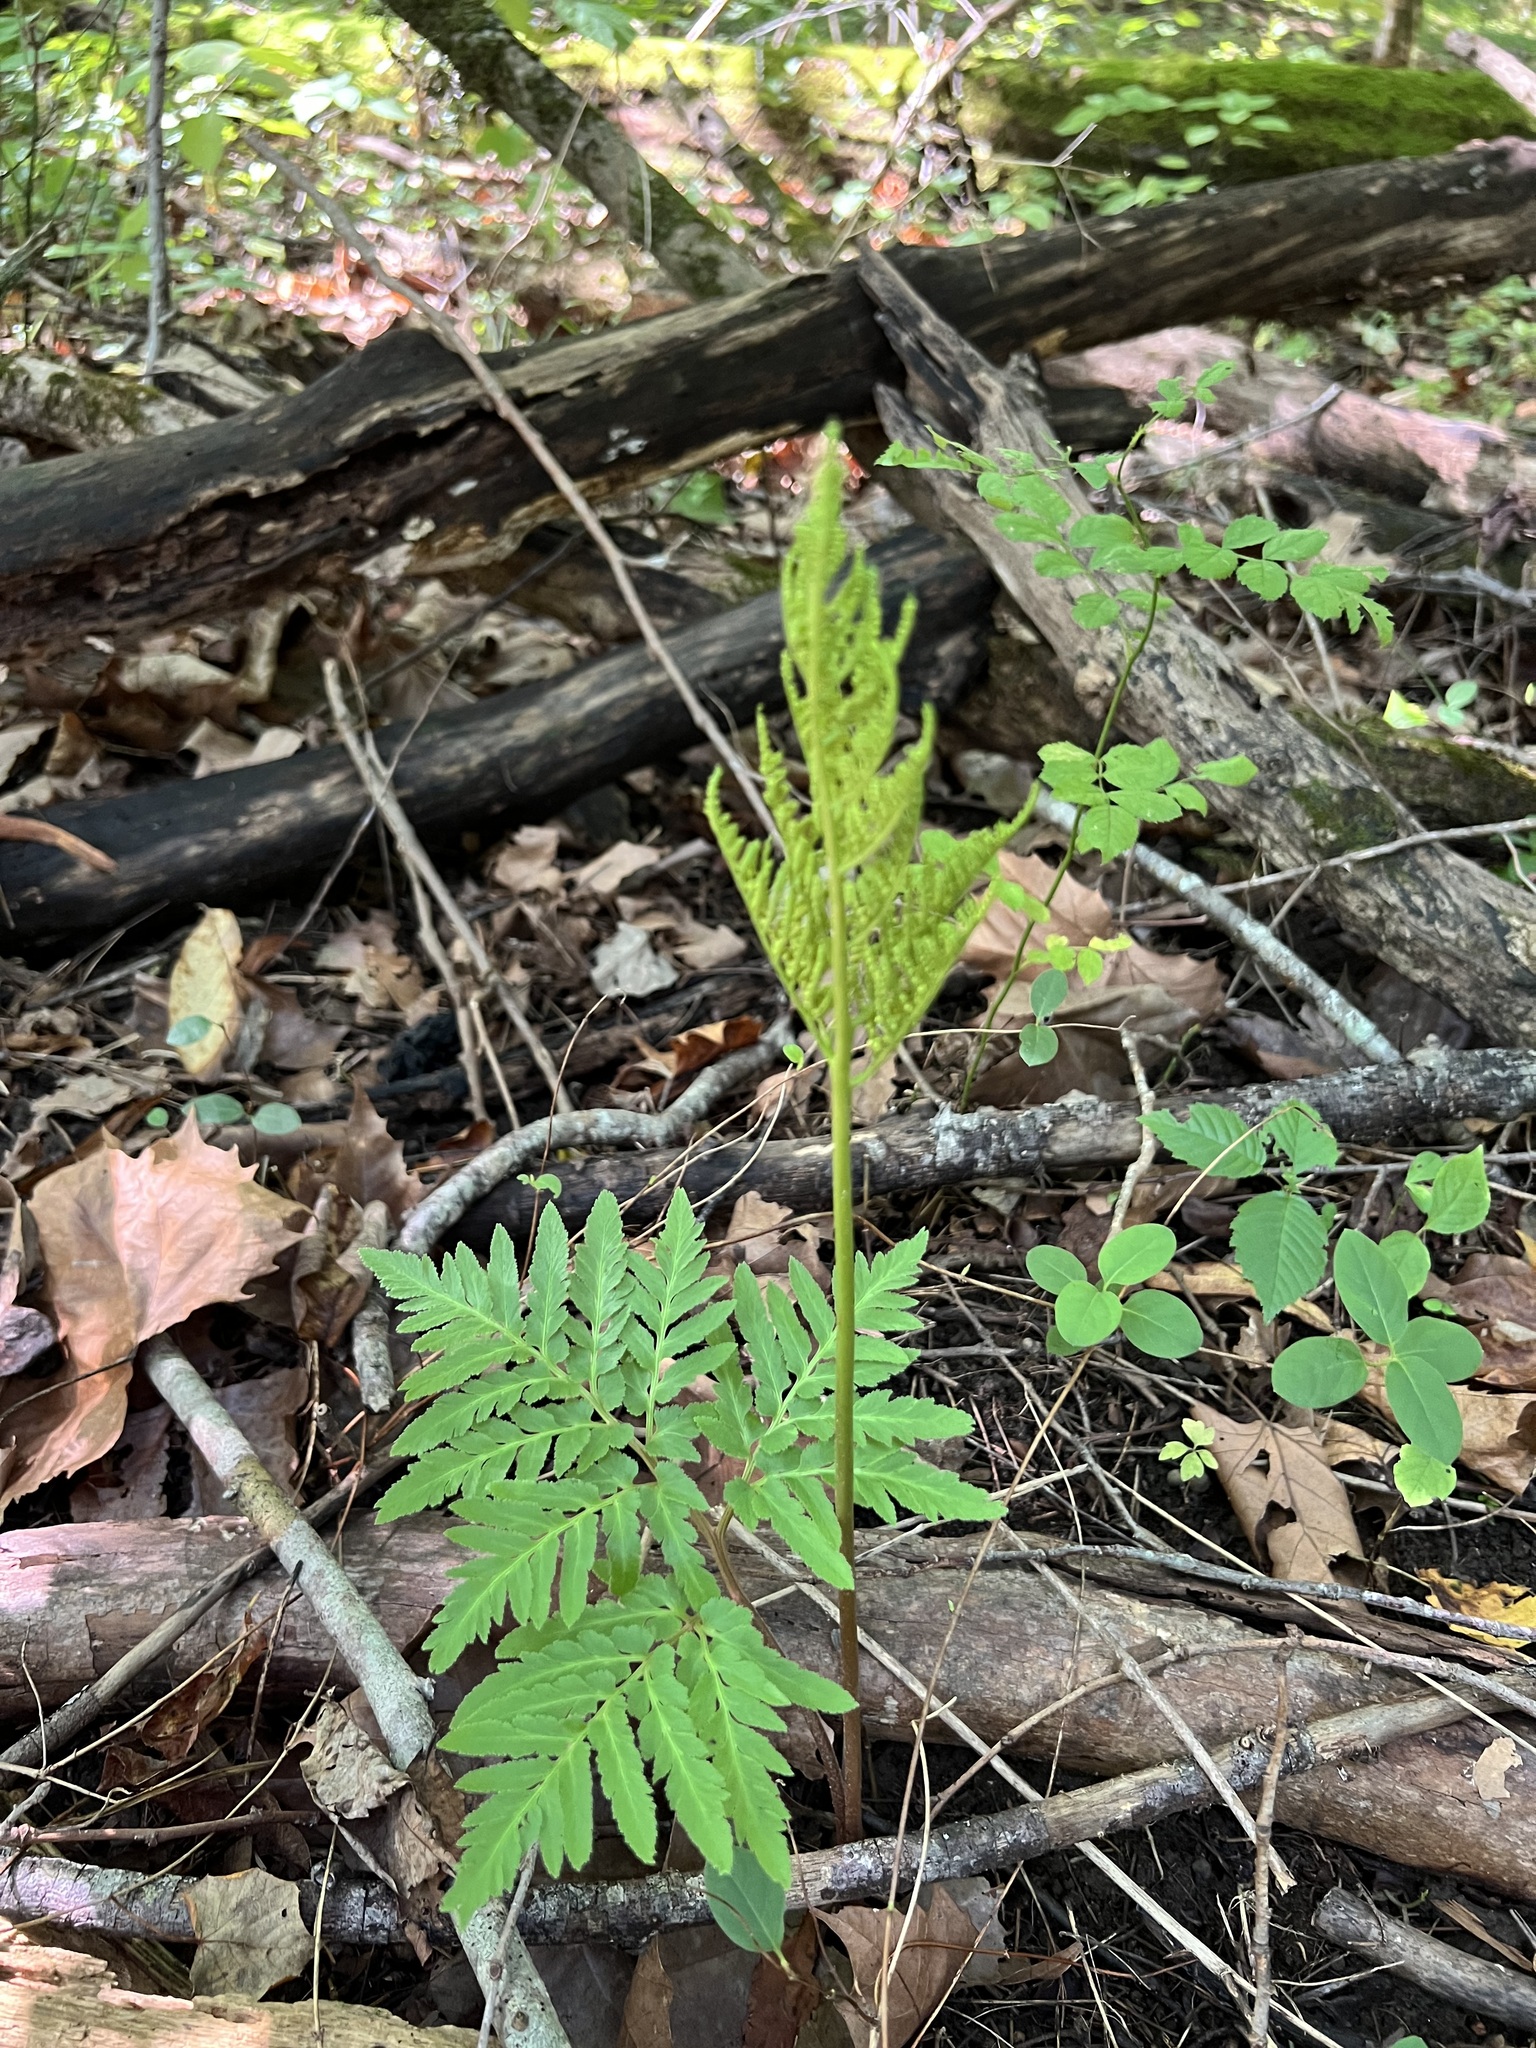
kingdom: Plantae
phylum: Tracheophyta
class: Polypodiopsida
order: Ophioglossales
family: Ophioglossaceae
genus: Sceptridium
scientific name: Sceptridium dissectum
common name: Cut-leaved grapefern
